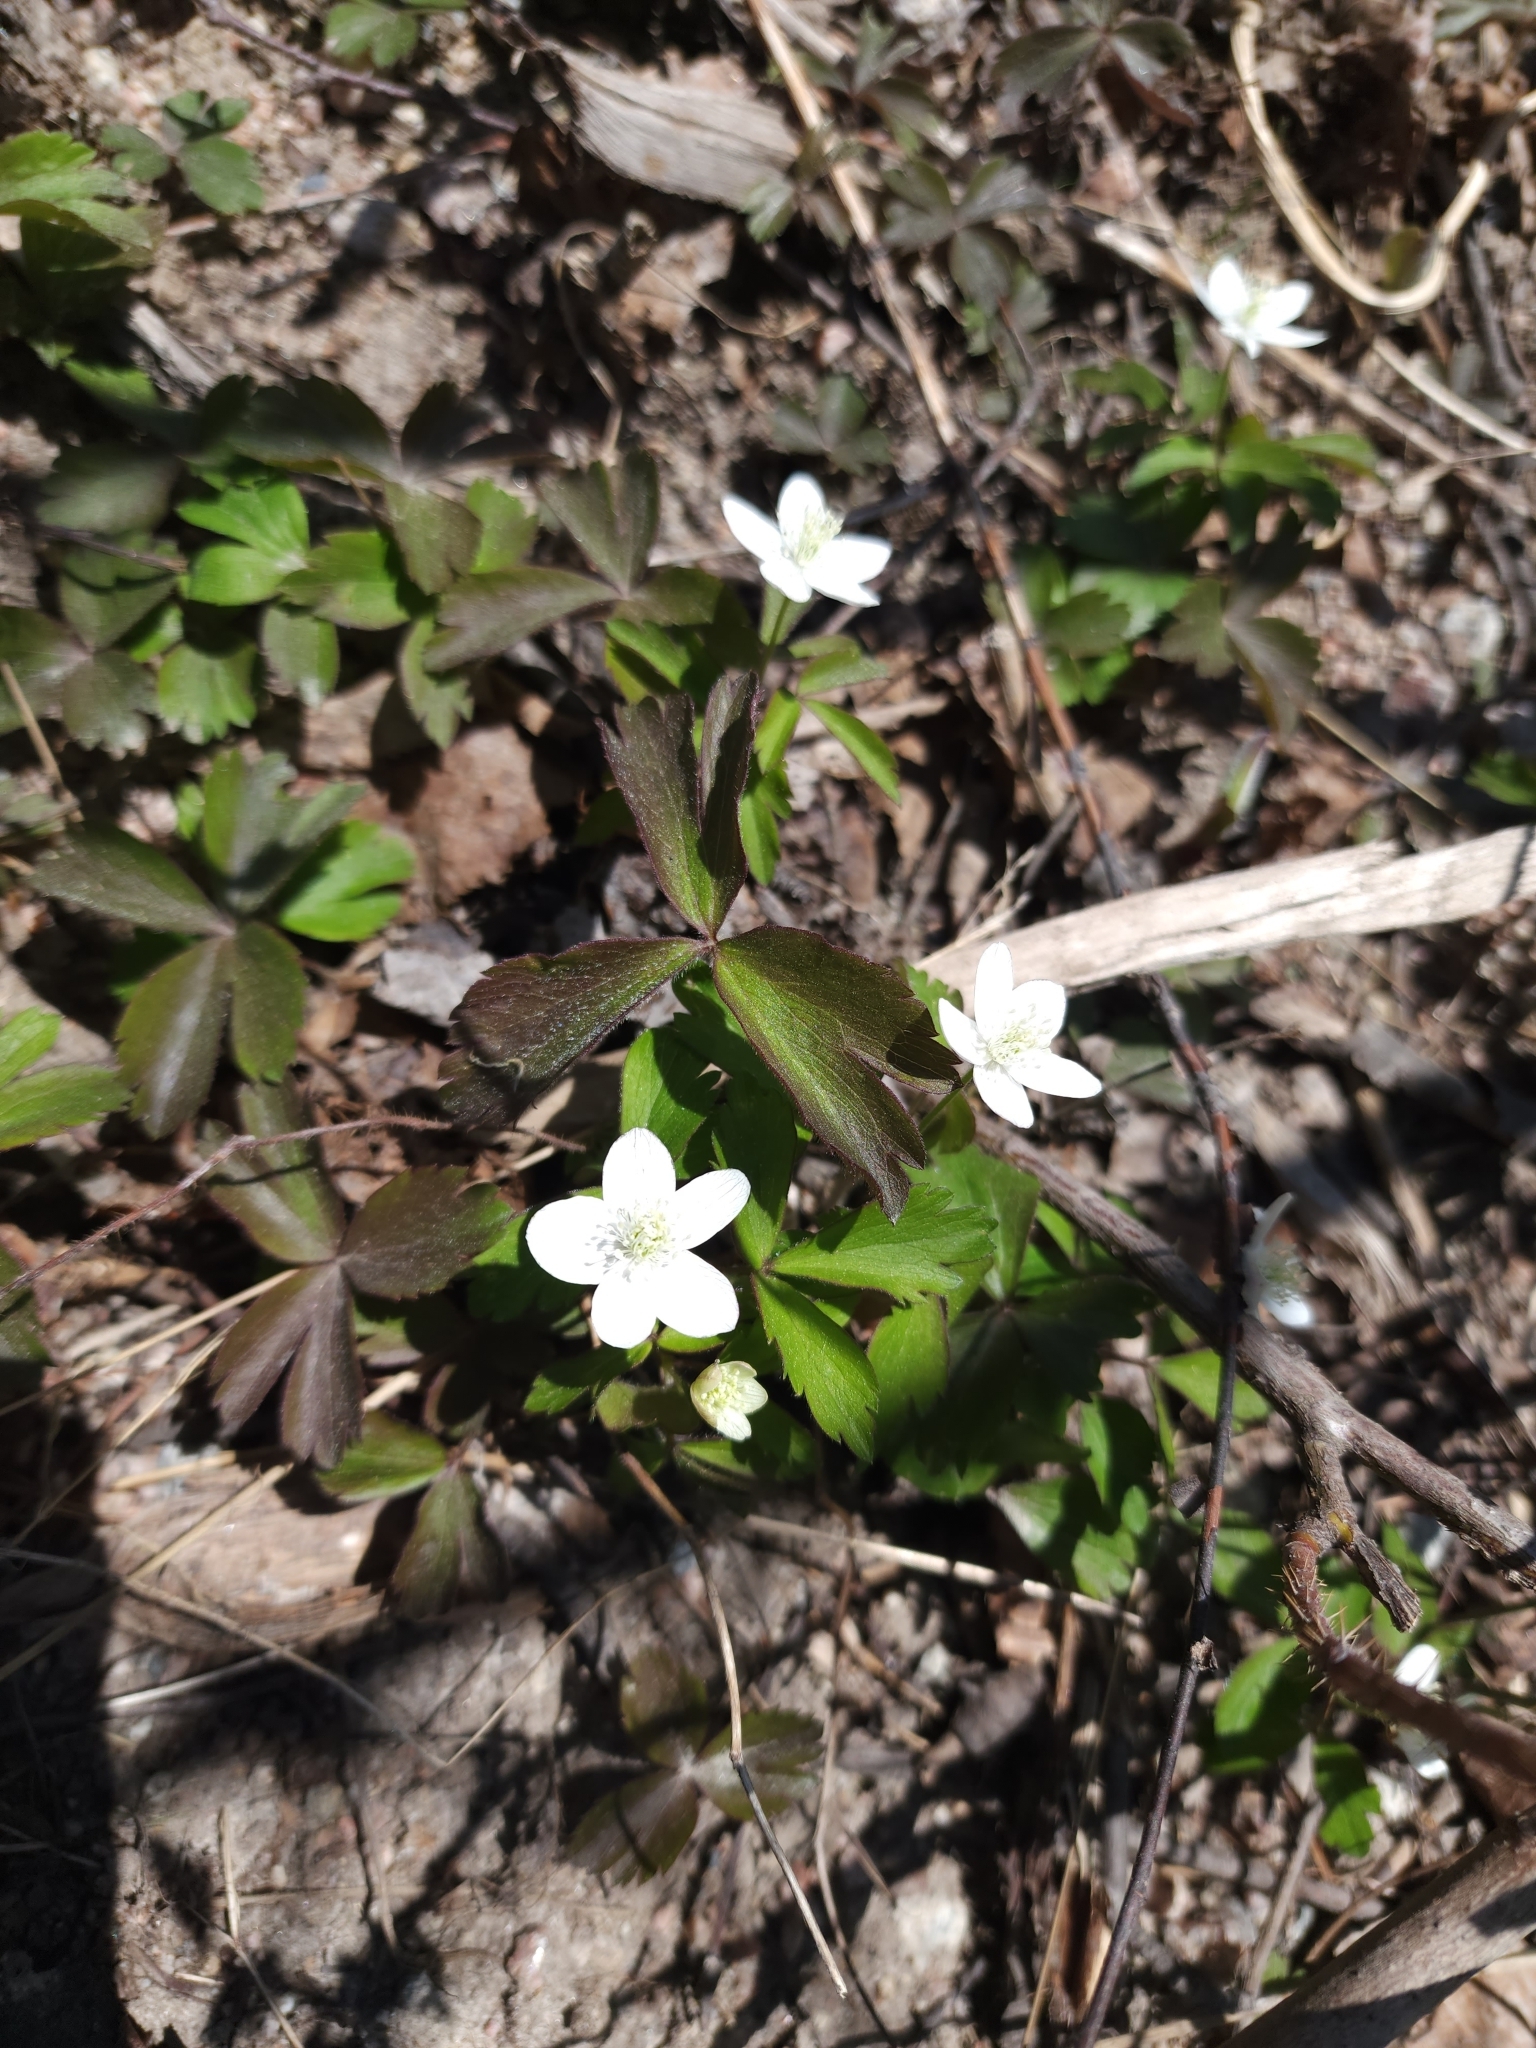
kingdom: Plantae
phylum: Tracheophyta
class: Magnoliopsida
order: Ranunculales
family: Ranunculaceae
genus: Anemone
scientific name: Anemone quinquefolia
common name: Wood anemone
